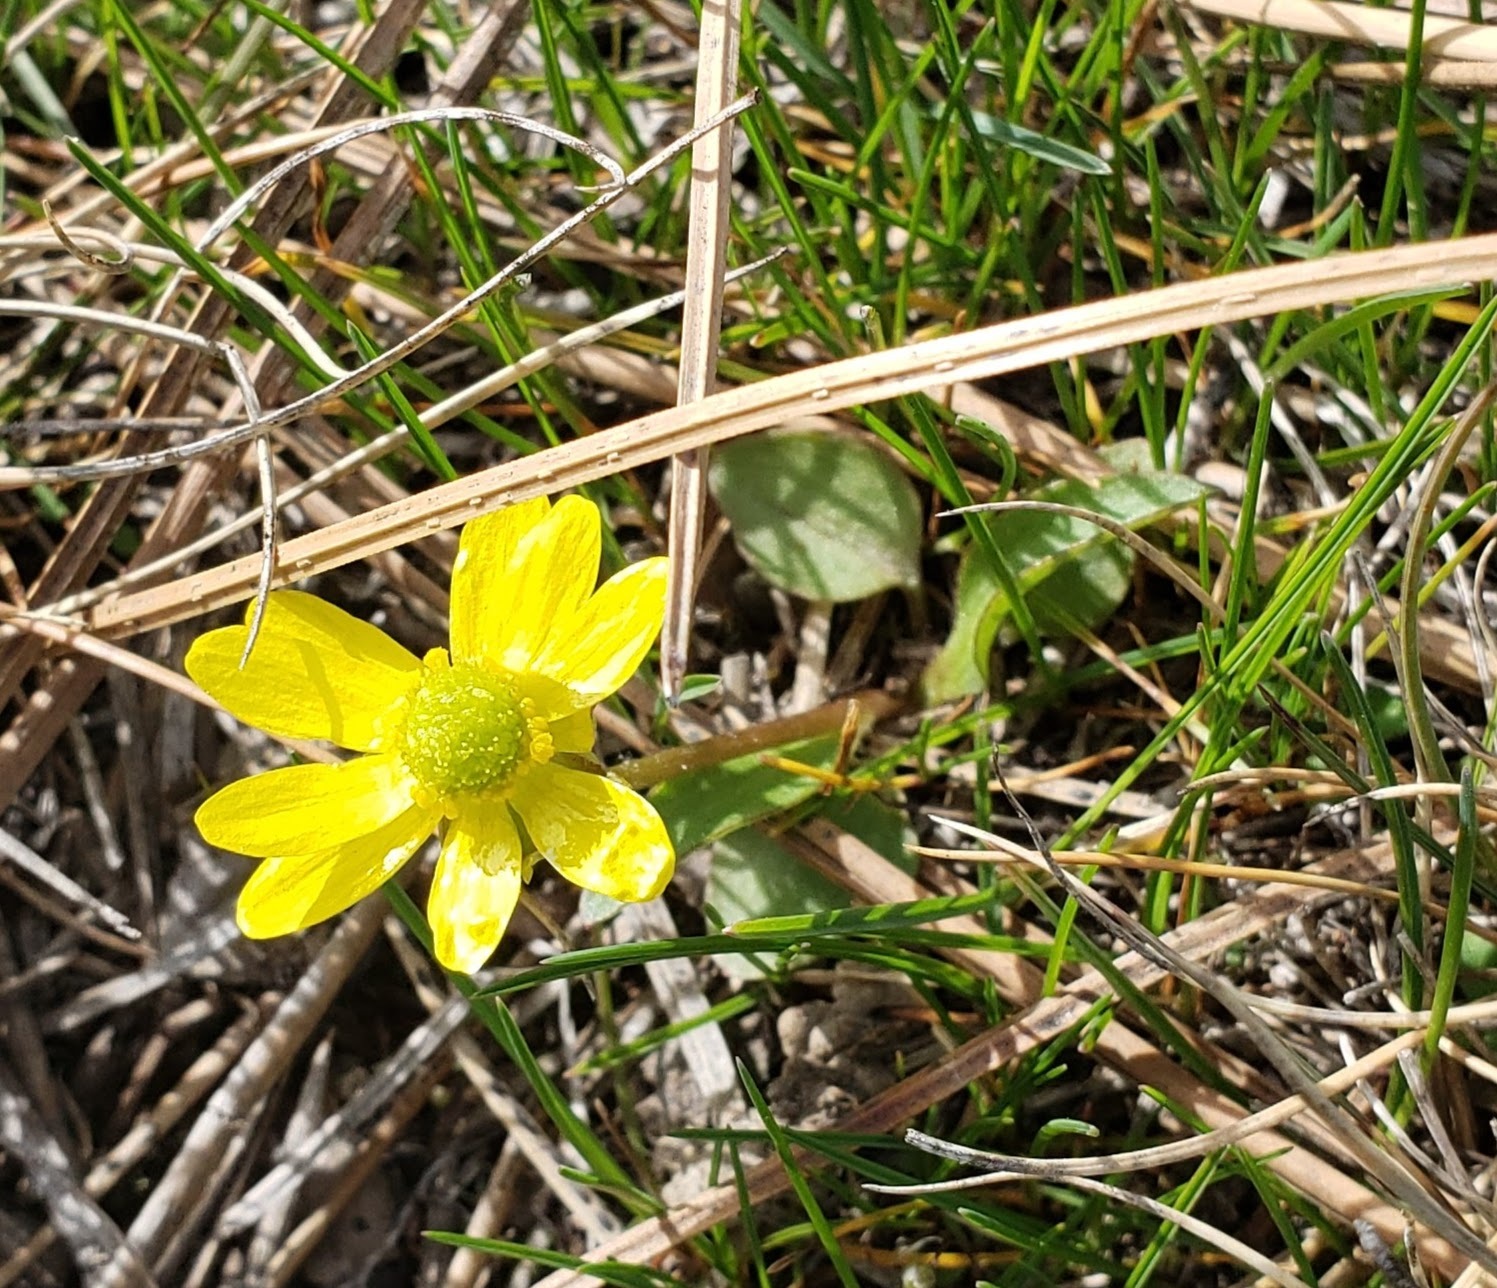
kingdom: Plantae
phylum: Tracheophyta
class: Magnoliopsida
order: Ranunculales
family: Ranunculaceae
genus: Ranunculus
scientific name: Ranunculus glaberrimus
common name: Sagebrush buttercup
